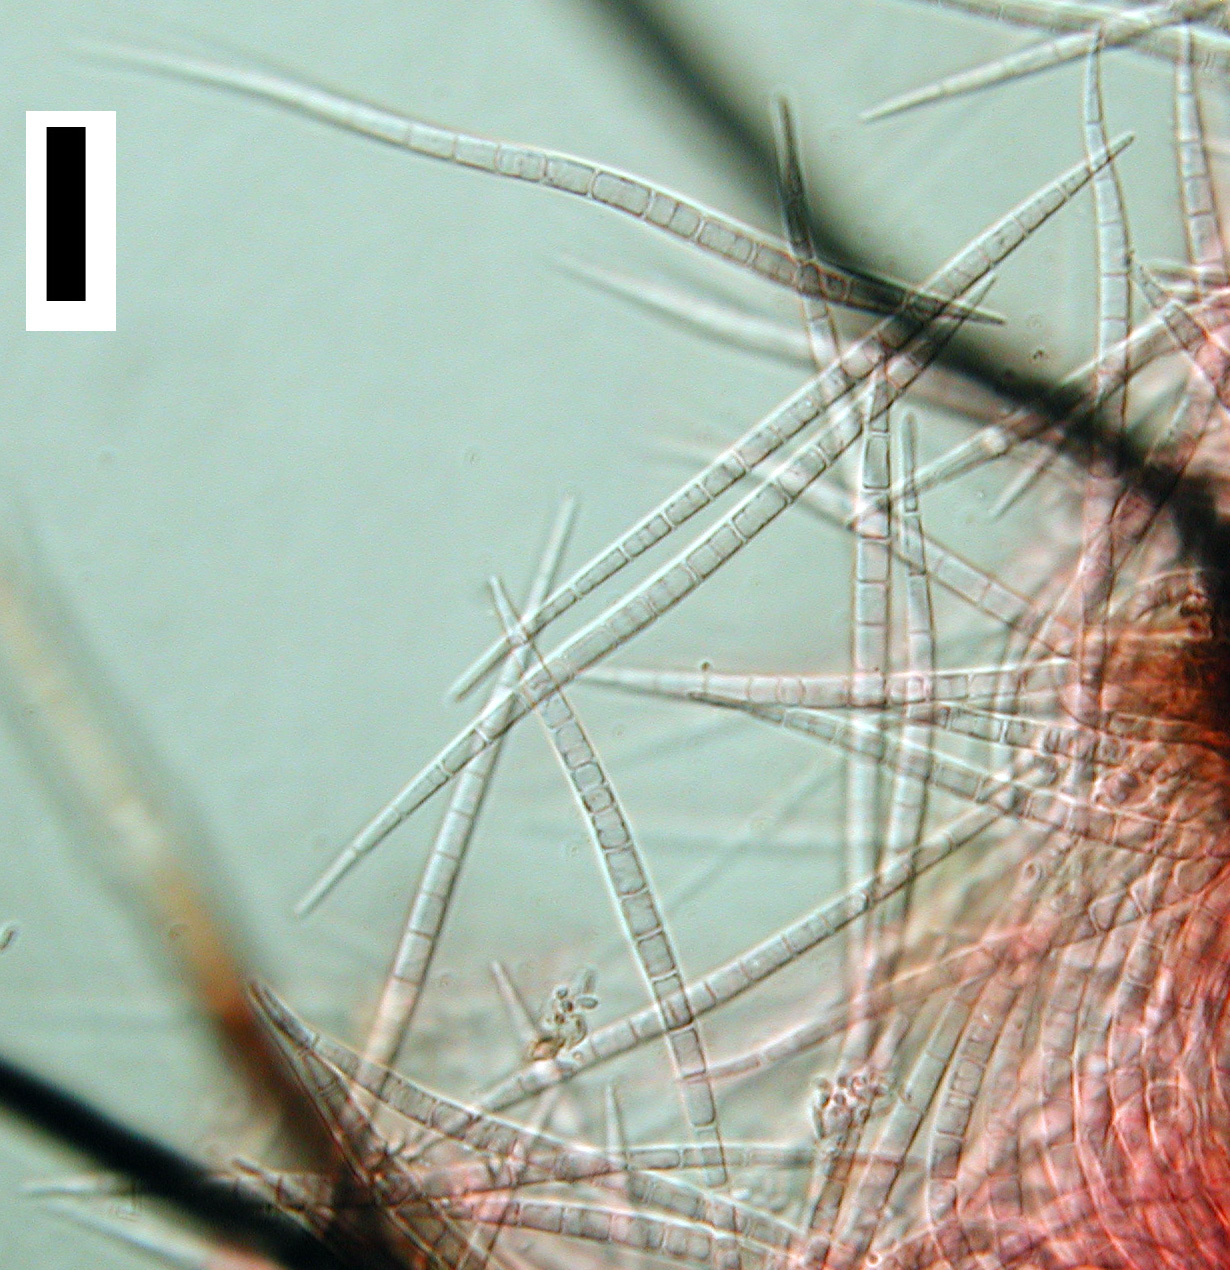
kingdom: Fungi
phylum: Ascomycota
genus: Morrisographium
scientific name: Morrisographium fusisporium
